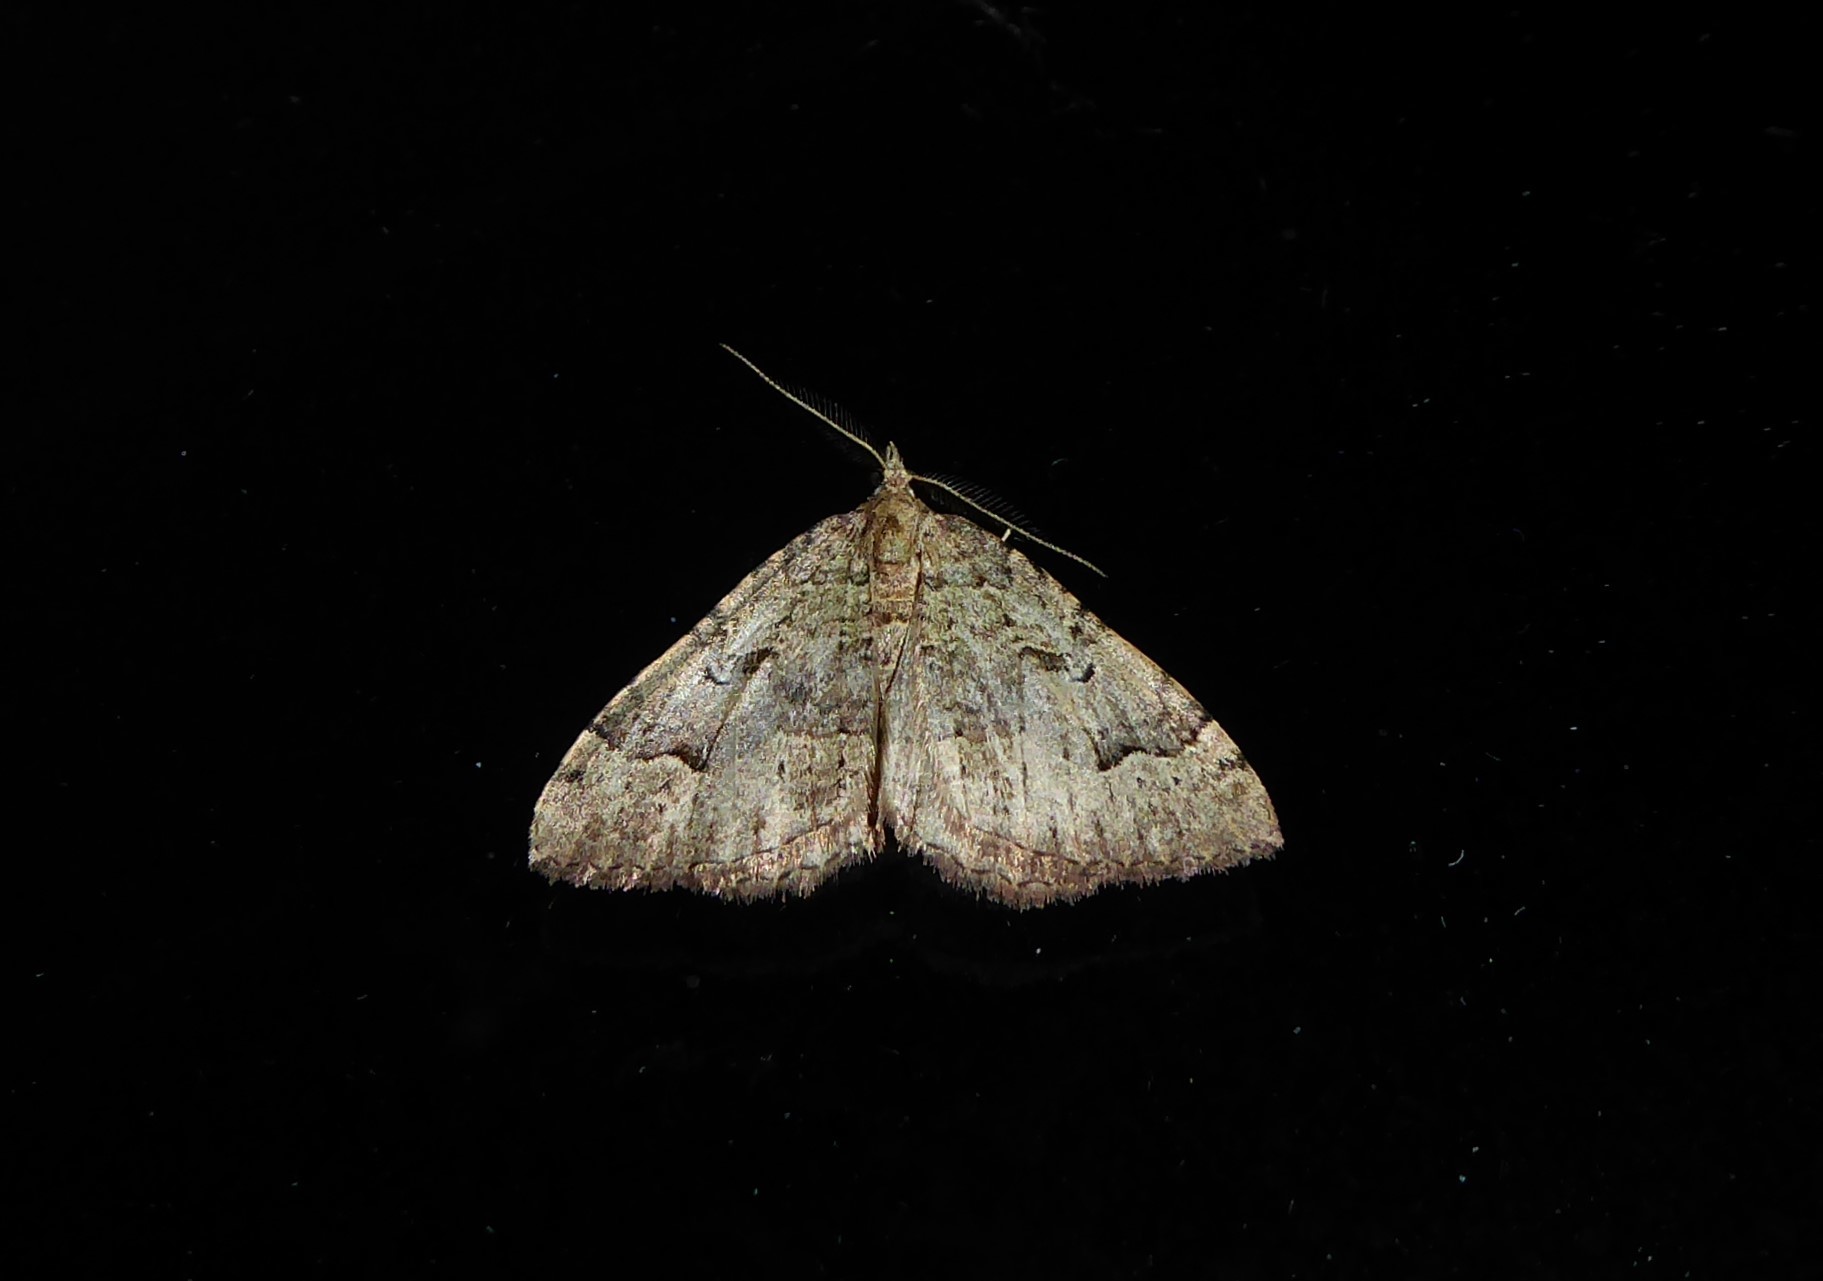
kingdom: Animalia
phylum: Arthropoda
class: Insecta
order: Lepidoptera
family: Geometridae
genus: Epyaxa
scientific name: Epyaxa rosearia
